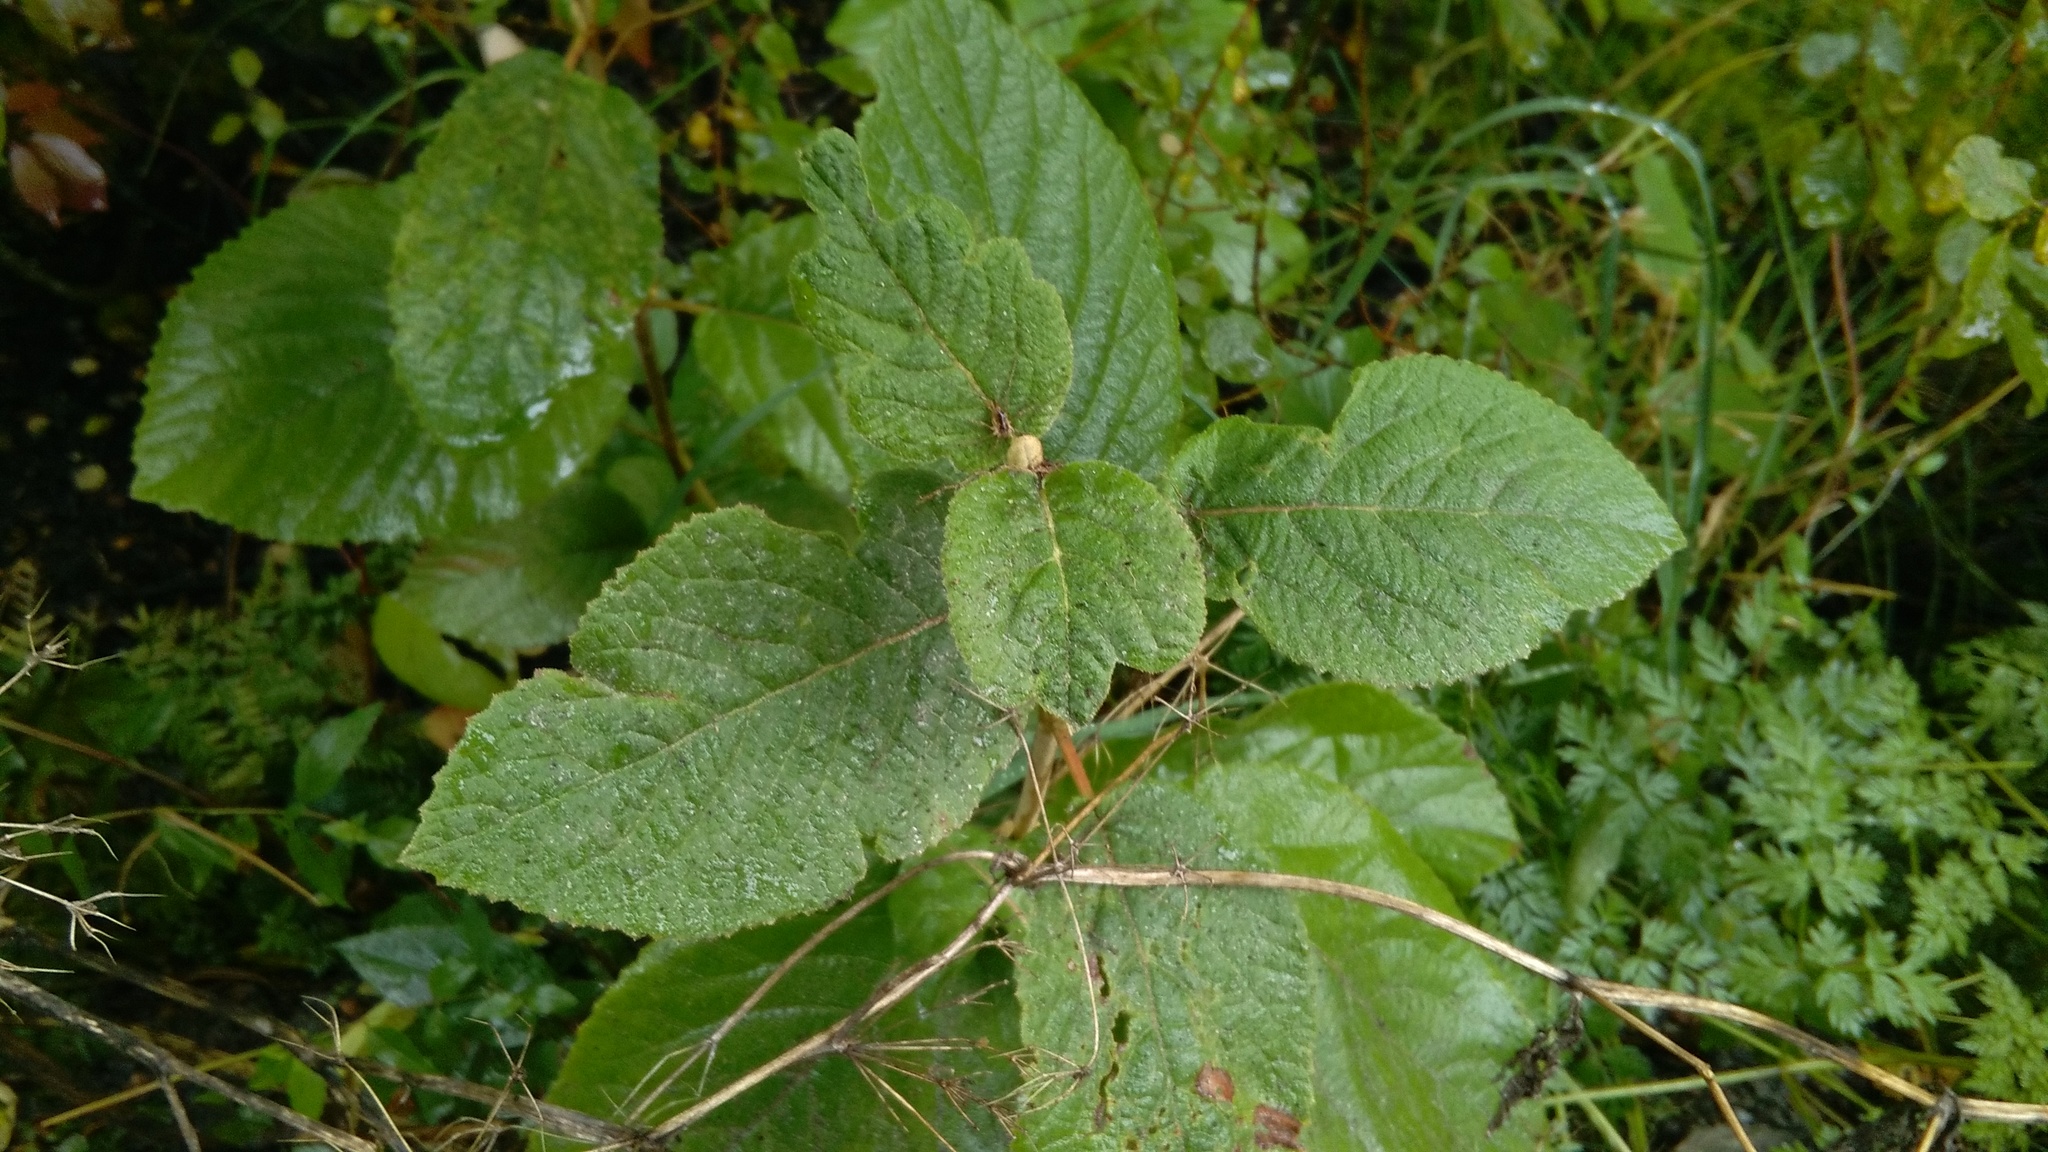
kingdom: Plantae
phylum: Tracheophyta
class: Magnoliopsida
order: Dipsacales
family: Viburnaceae
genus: Viburnum
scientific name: Viburnum lantana
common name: Wayfaring tree
